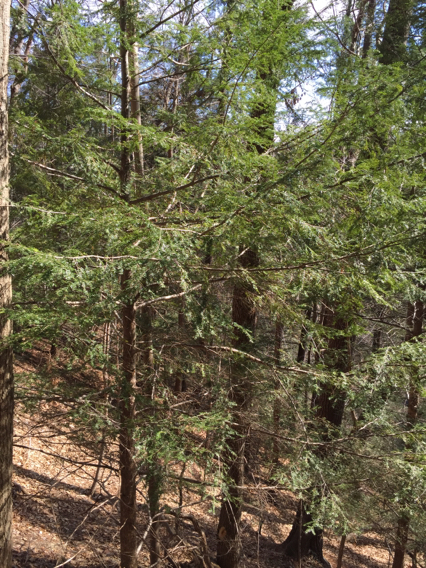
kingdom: Plantae
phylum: Tracheophyta
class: Pinopsida
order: Pinales
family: Pinaceae
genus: Tsuga
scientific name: Tsuga canadensis
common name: Eastern hemlock
